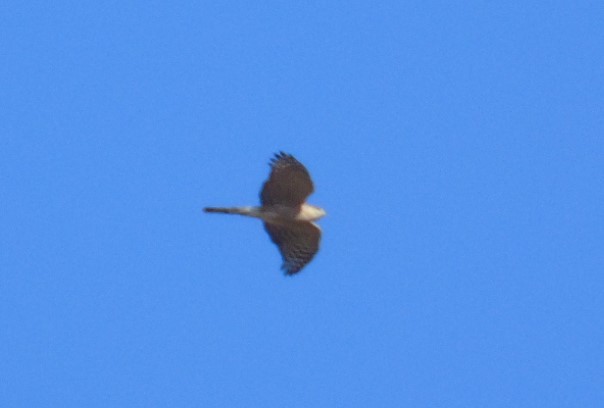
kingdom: Animalia
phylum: Chordata
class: Aves
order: Accipitriformes
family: Accipitridae
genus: Accipiter
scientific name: Accipiter cooperii
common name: Cooper's hawk
